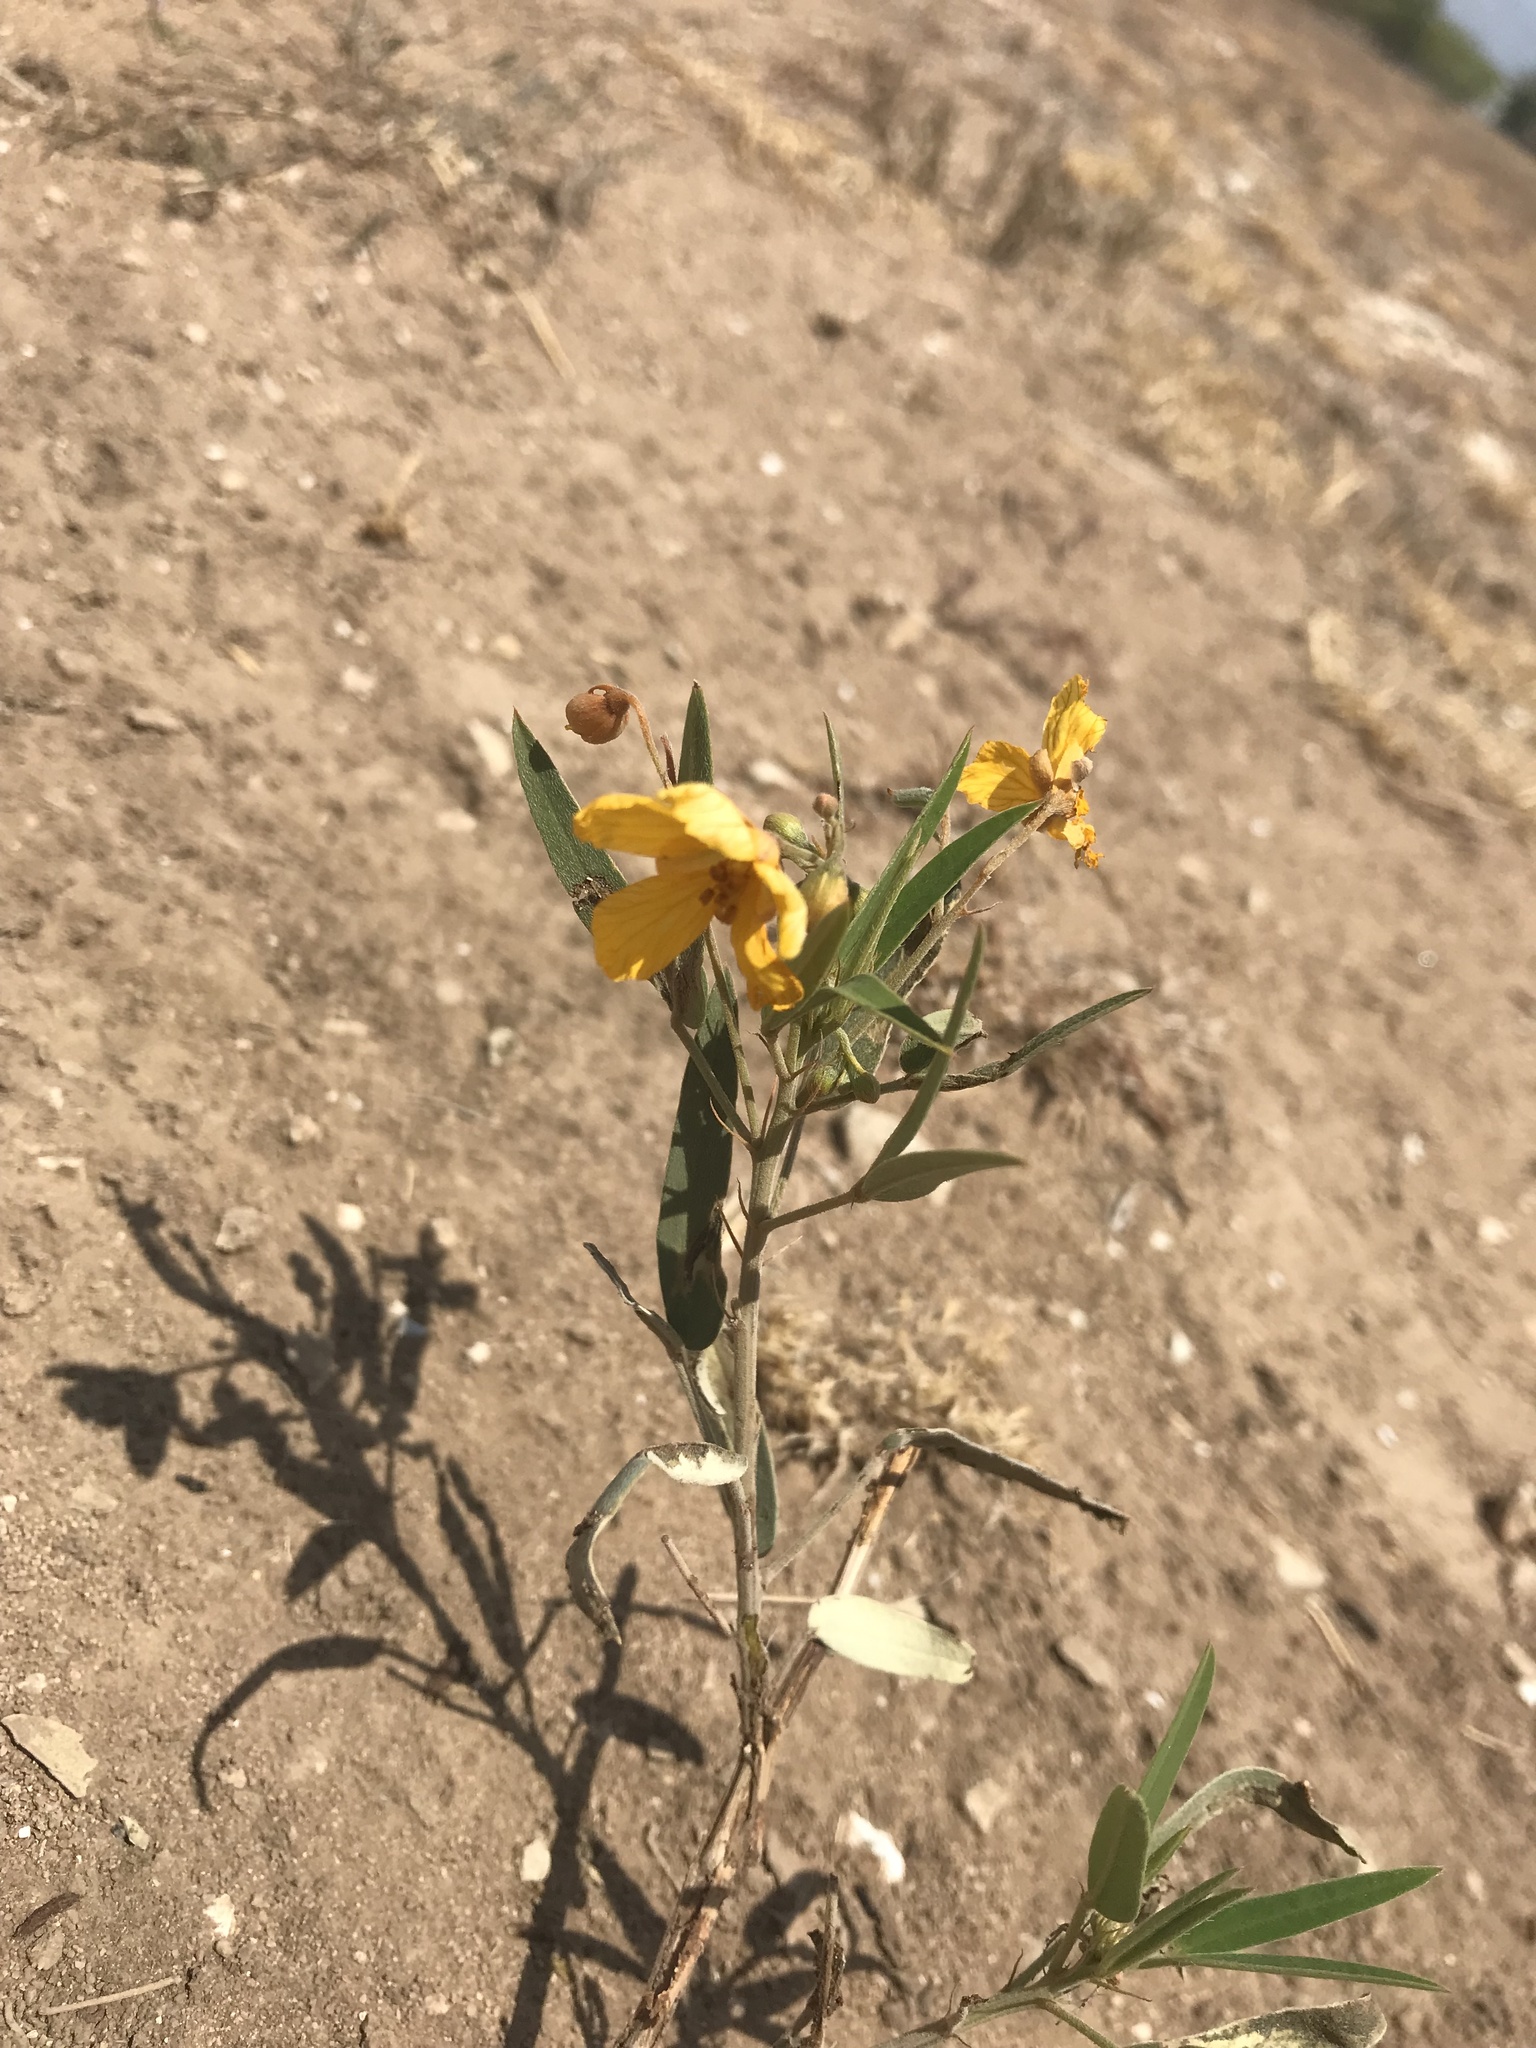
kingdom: Plantae
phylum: Tracheophyta
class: Magnoliopsida
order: Fabales
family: Fabaceae
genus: Senna
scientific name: Senna roemeriana
